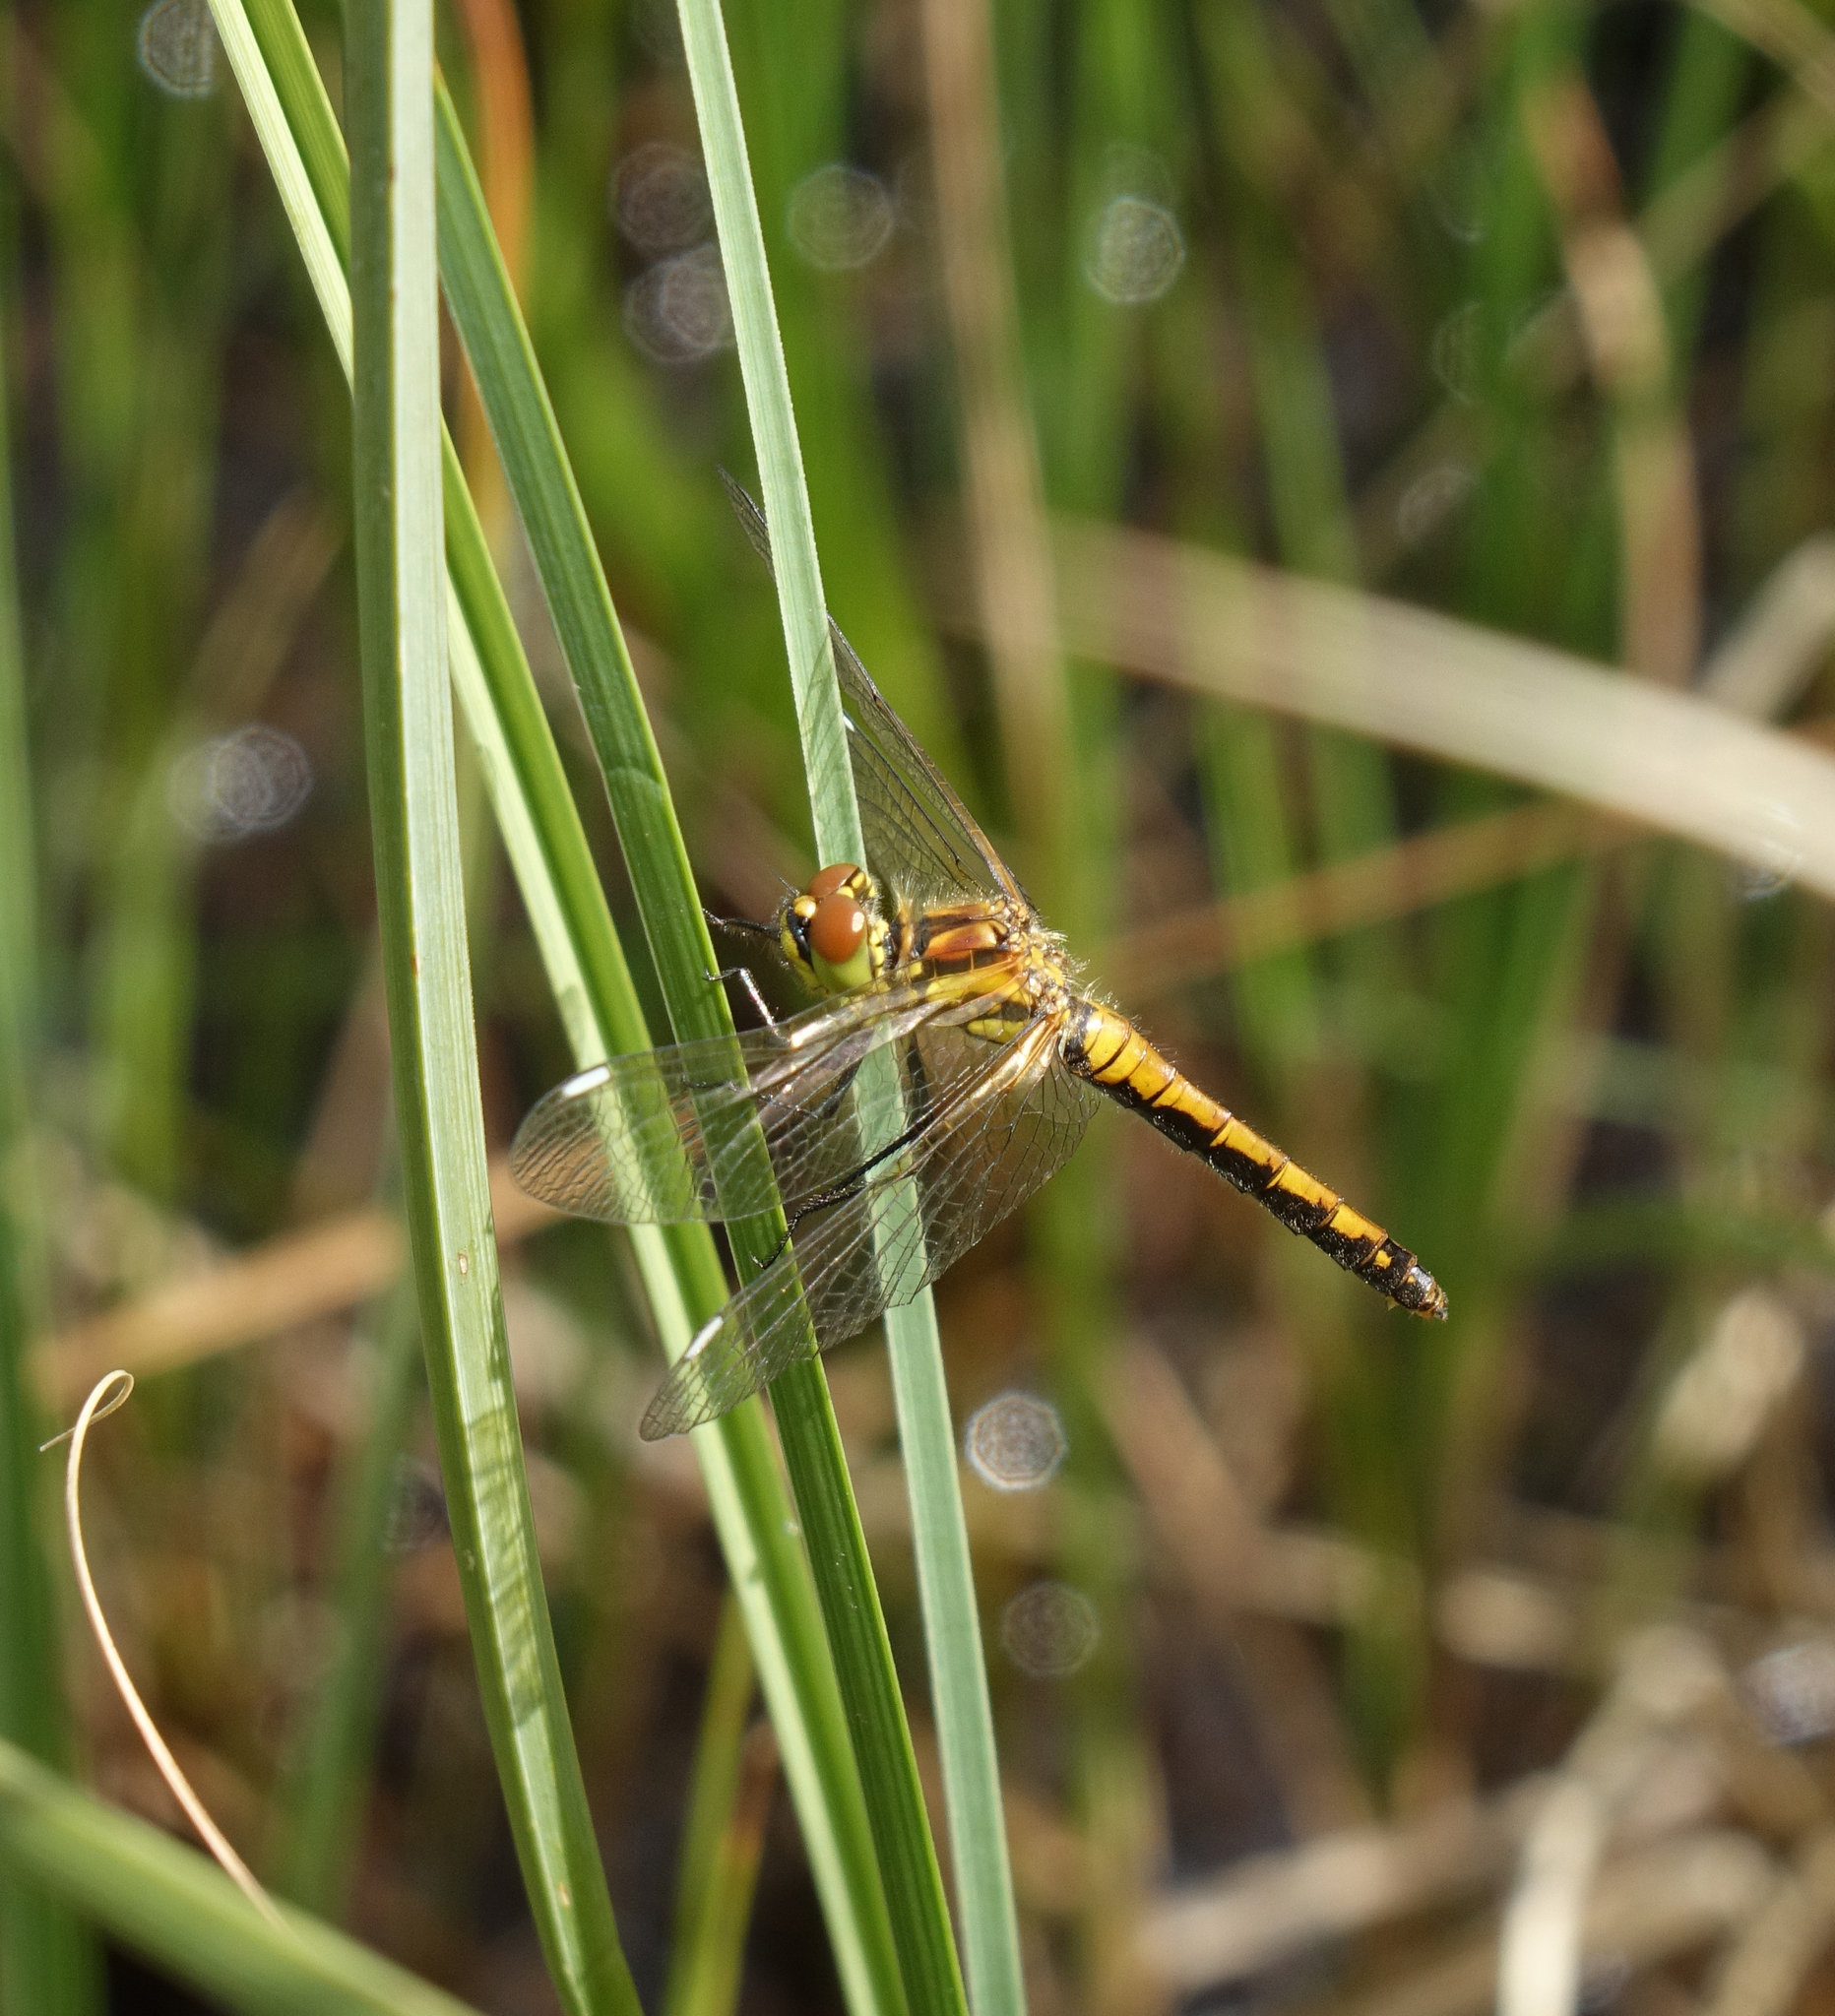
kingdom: Animalia
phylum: Arthropoda
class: Insecta
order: Odonata
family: Libellulidae
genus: Sympetrum
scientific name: Sympetrum danae
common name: Black darter
